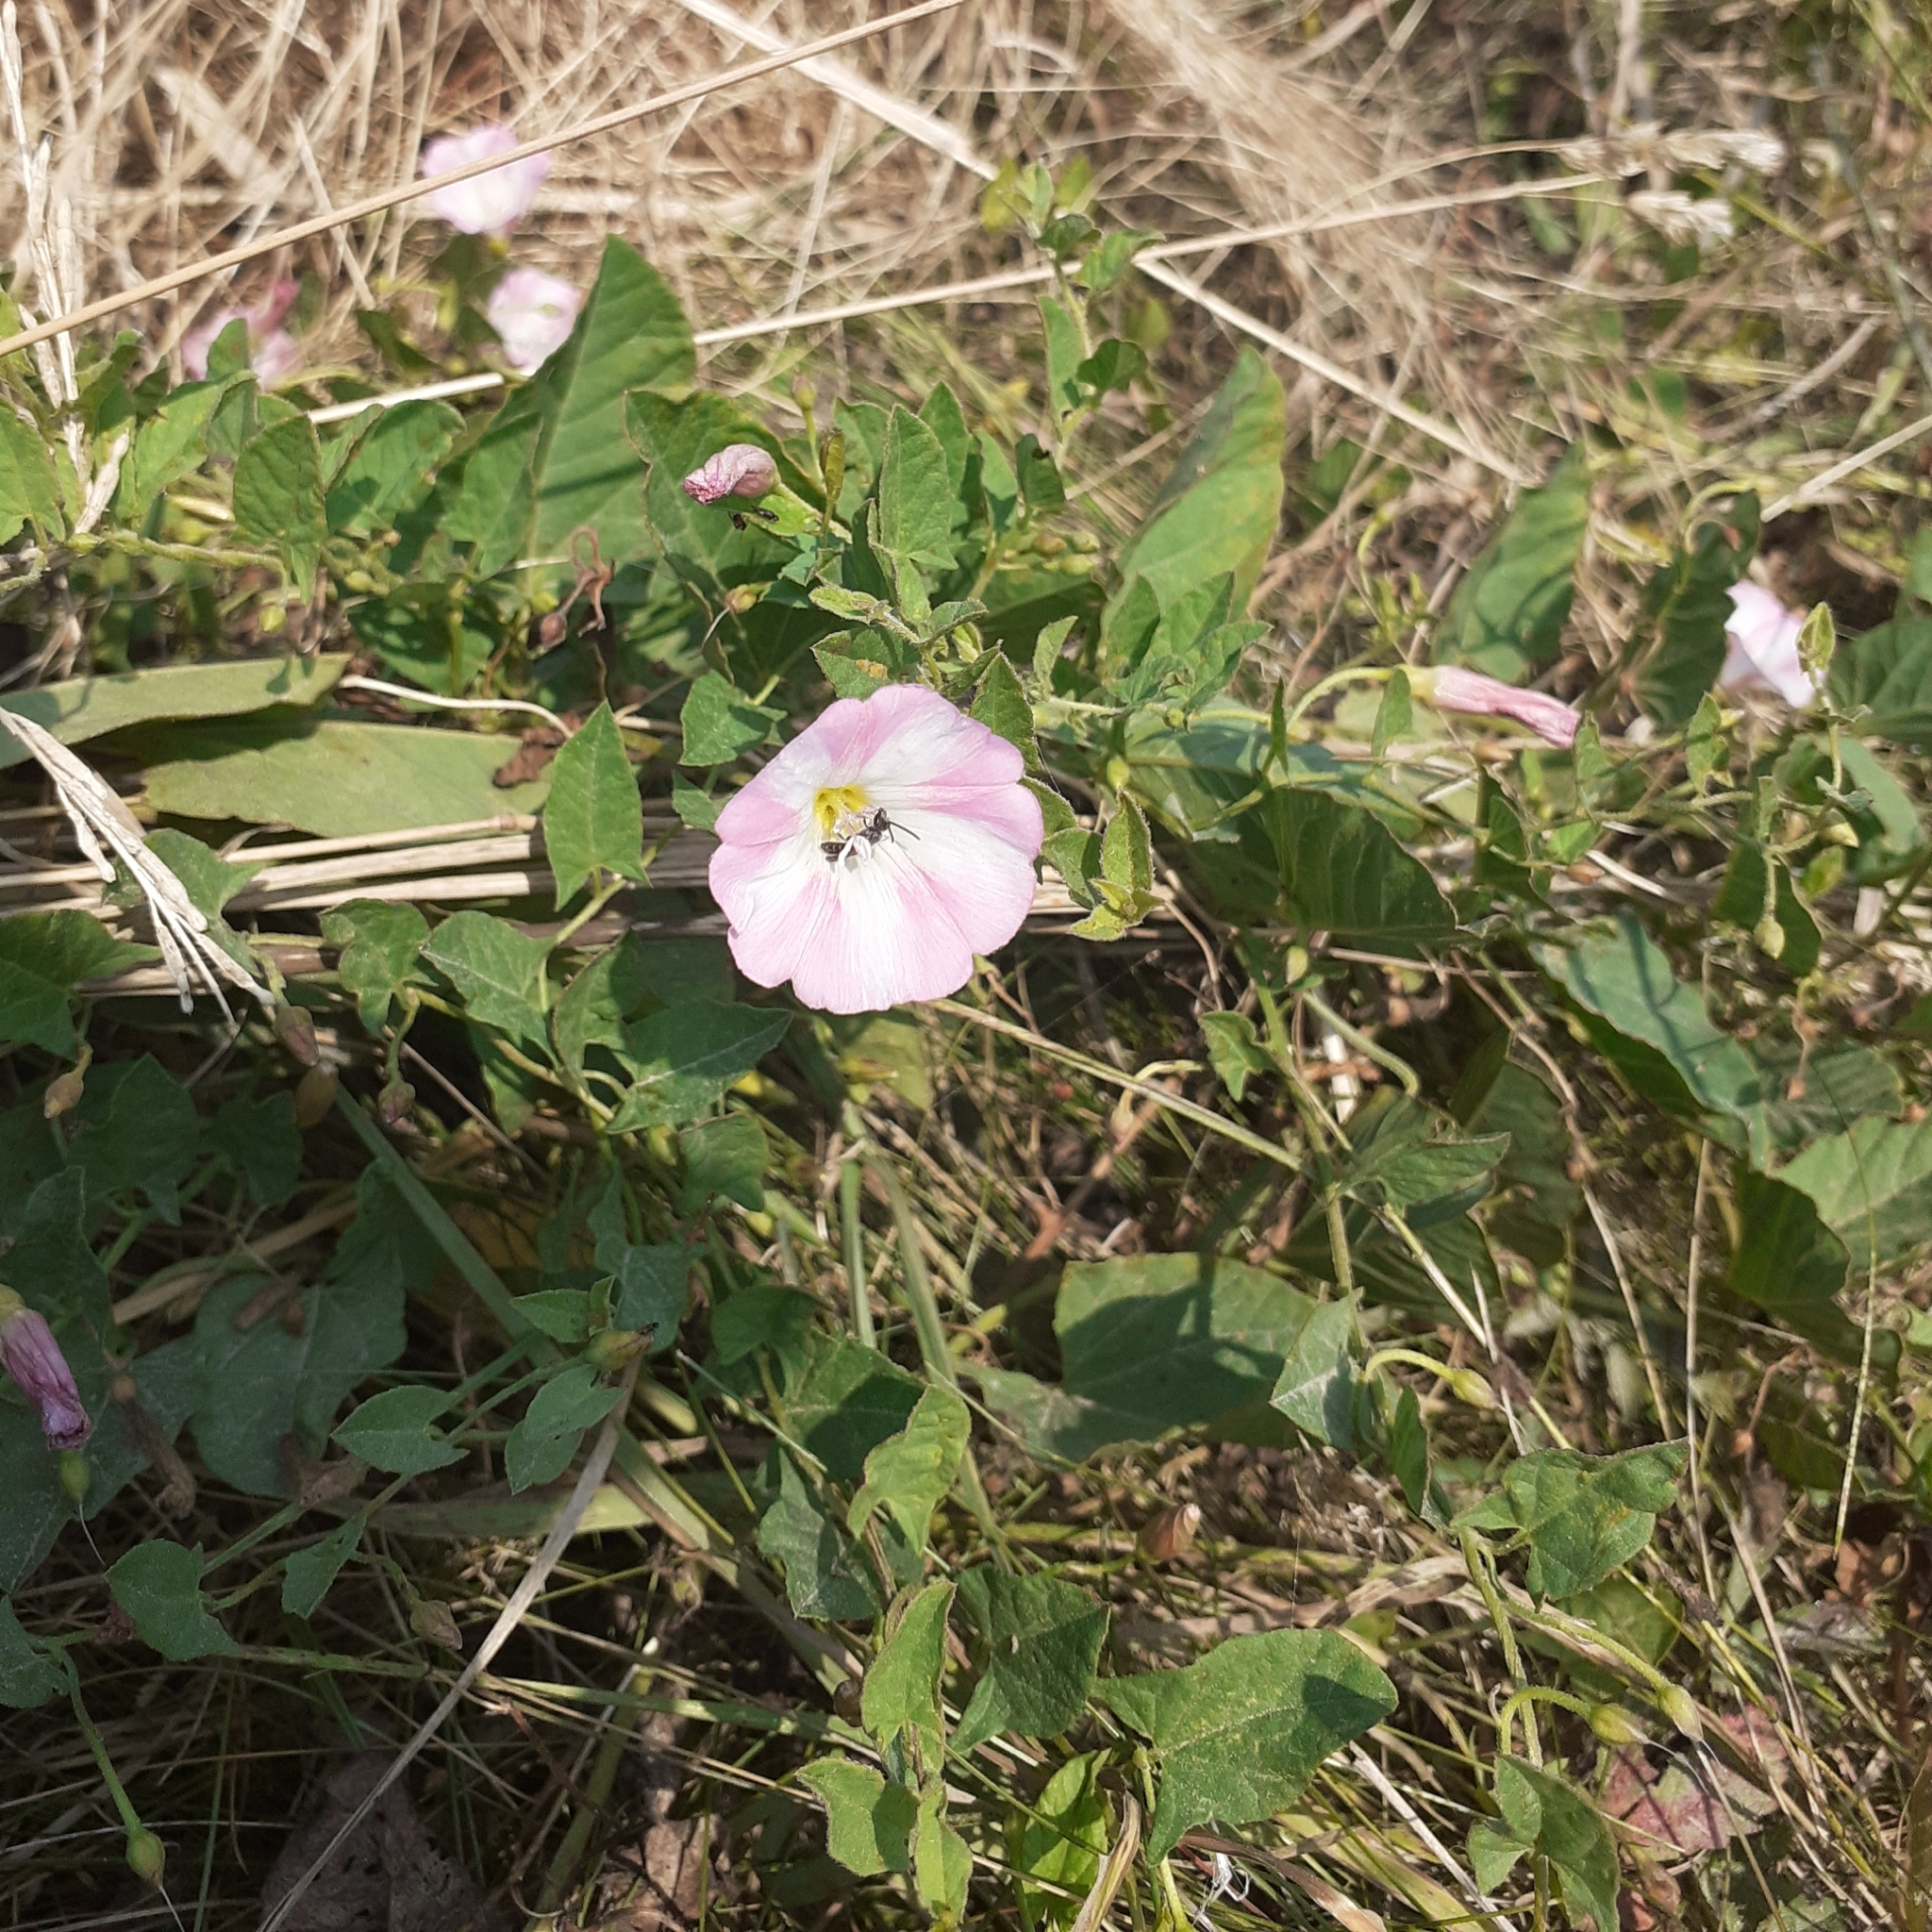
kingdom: Plantae
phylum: Tracheophyta
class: Magnoliopsida
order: Solanales
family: Convolvulaceae
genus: Convolvulus
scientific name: Convolvulus arvensis
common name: Field bindweed
